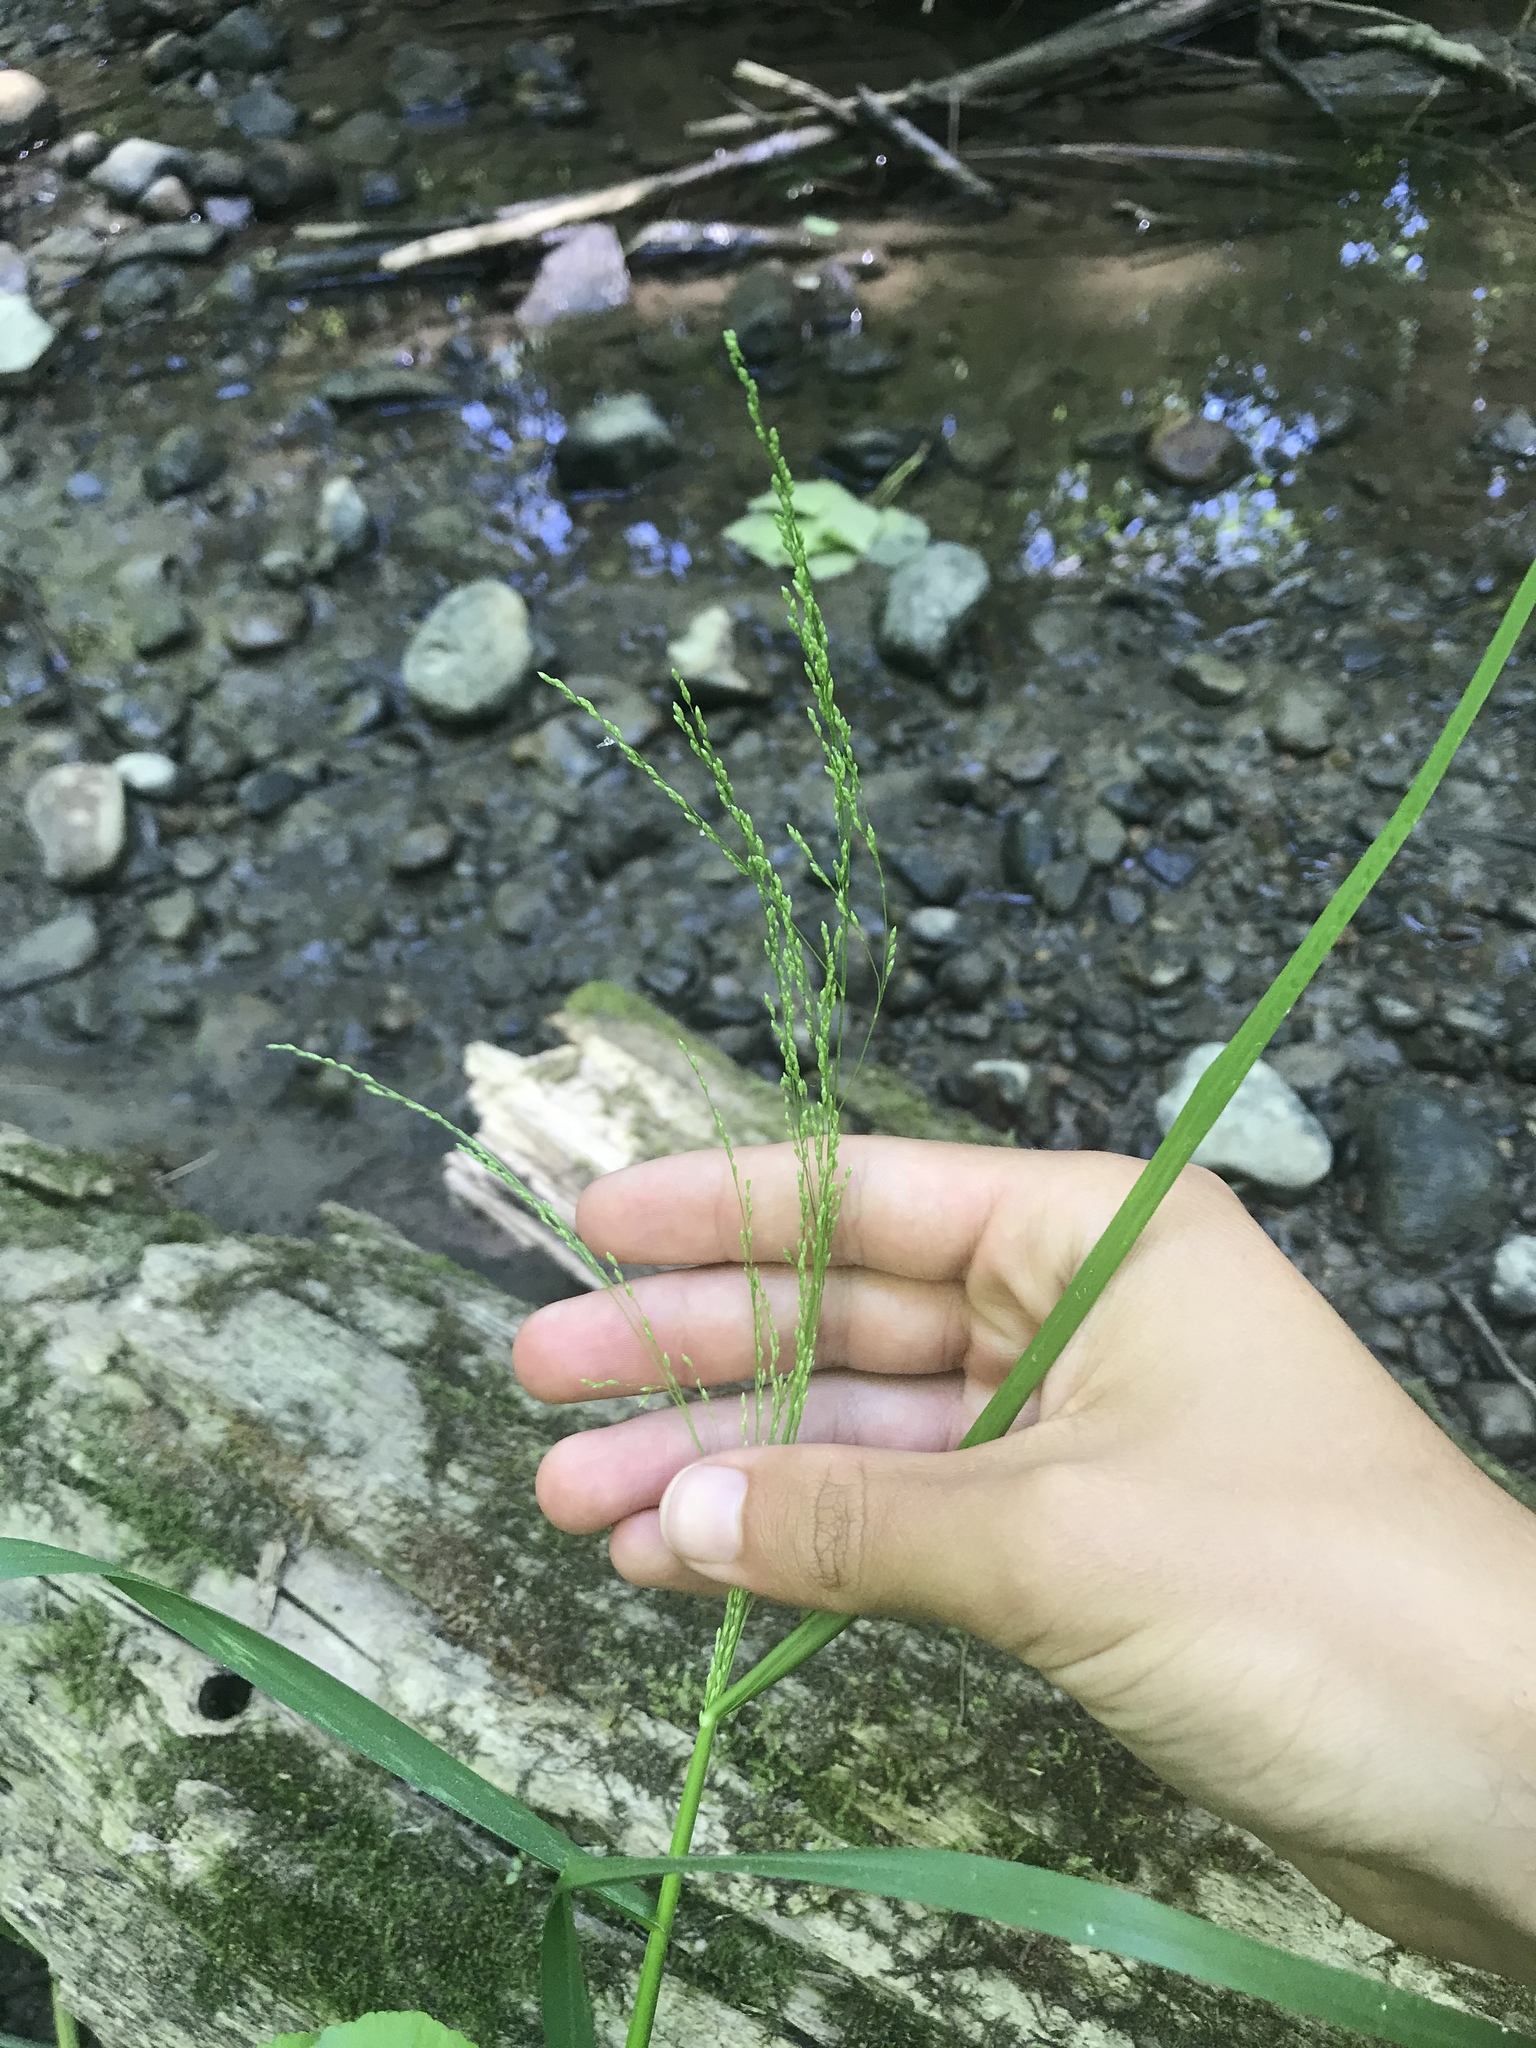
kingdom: Plantae
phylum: Tracheophyta
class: Liliopsida
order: Poales
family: Poaceae
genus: Glyceria
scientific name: Glyceria striata
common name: Fowl manna grass
